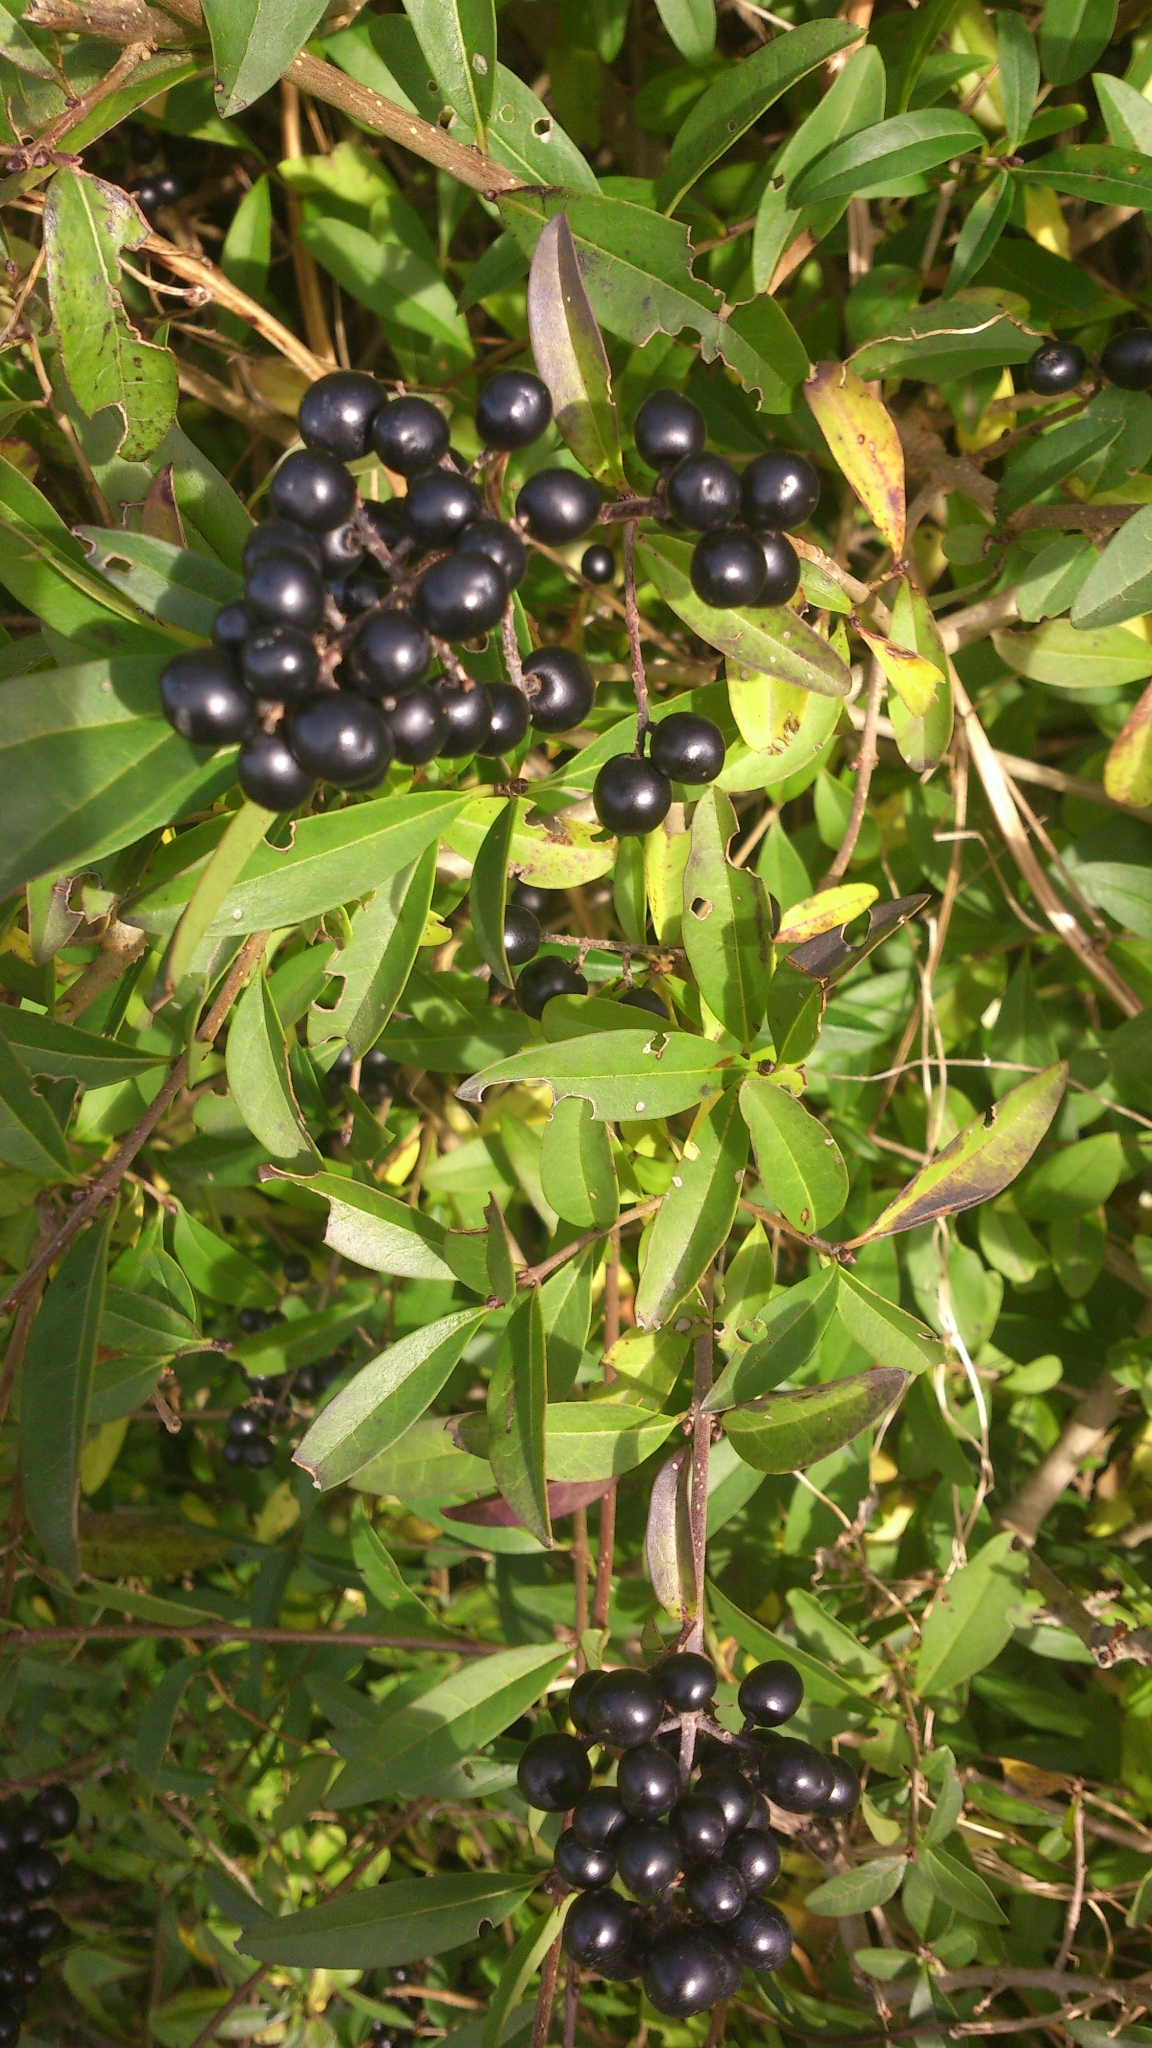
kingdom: Plantae
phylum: Tracheophyta
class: Magnoliopsida
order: Lamiales
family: Oleaceae
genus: Ligustrum
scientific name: Ligustrum vulgare
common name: Wild privet
